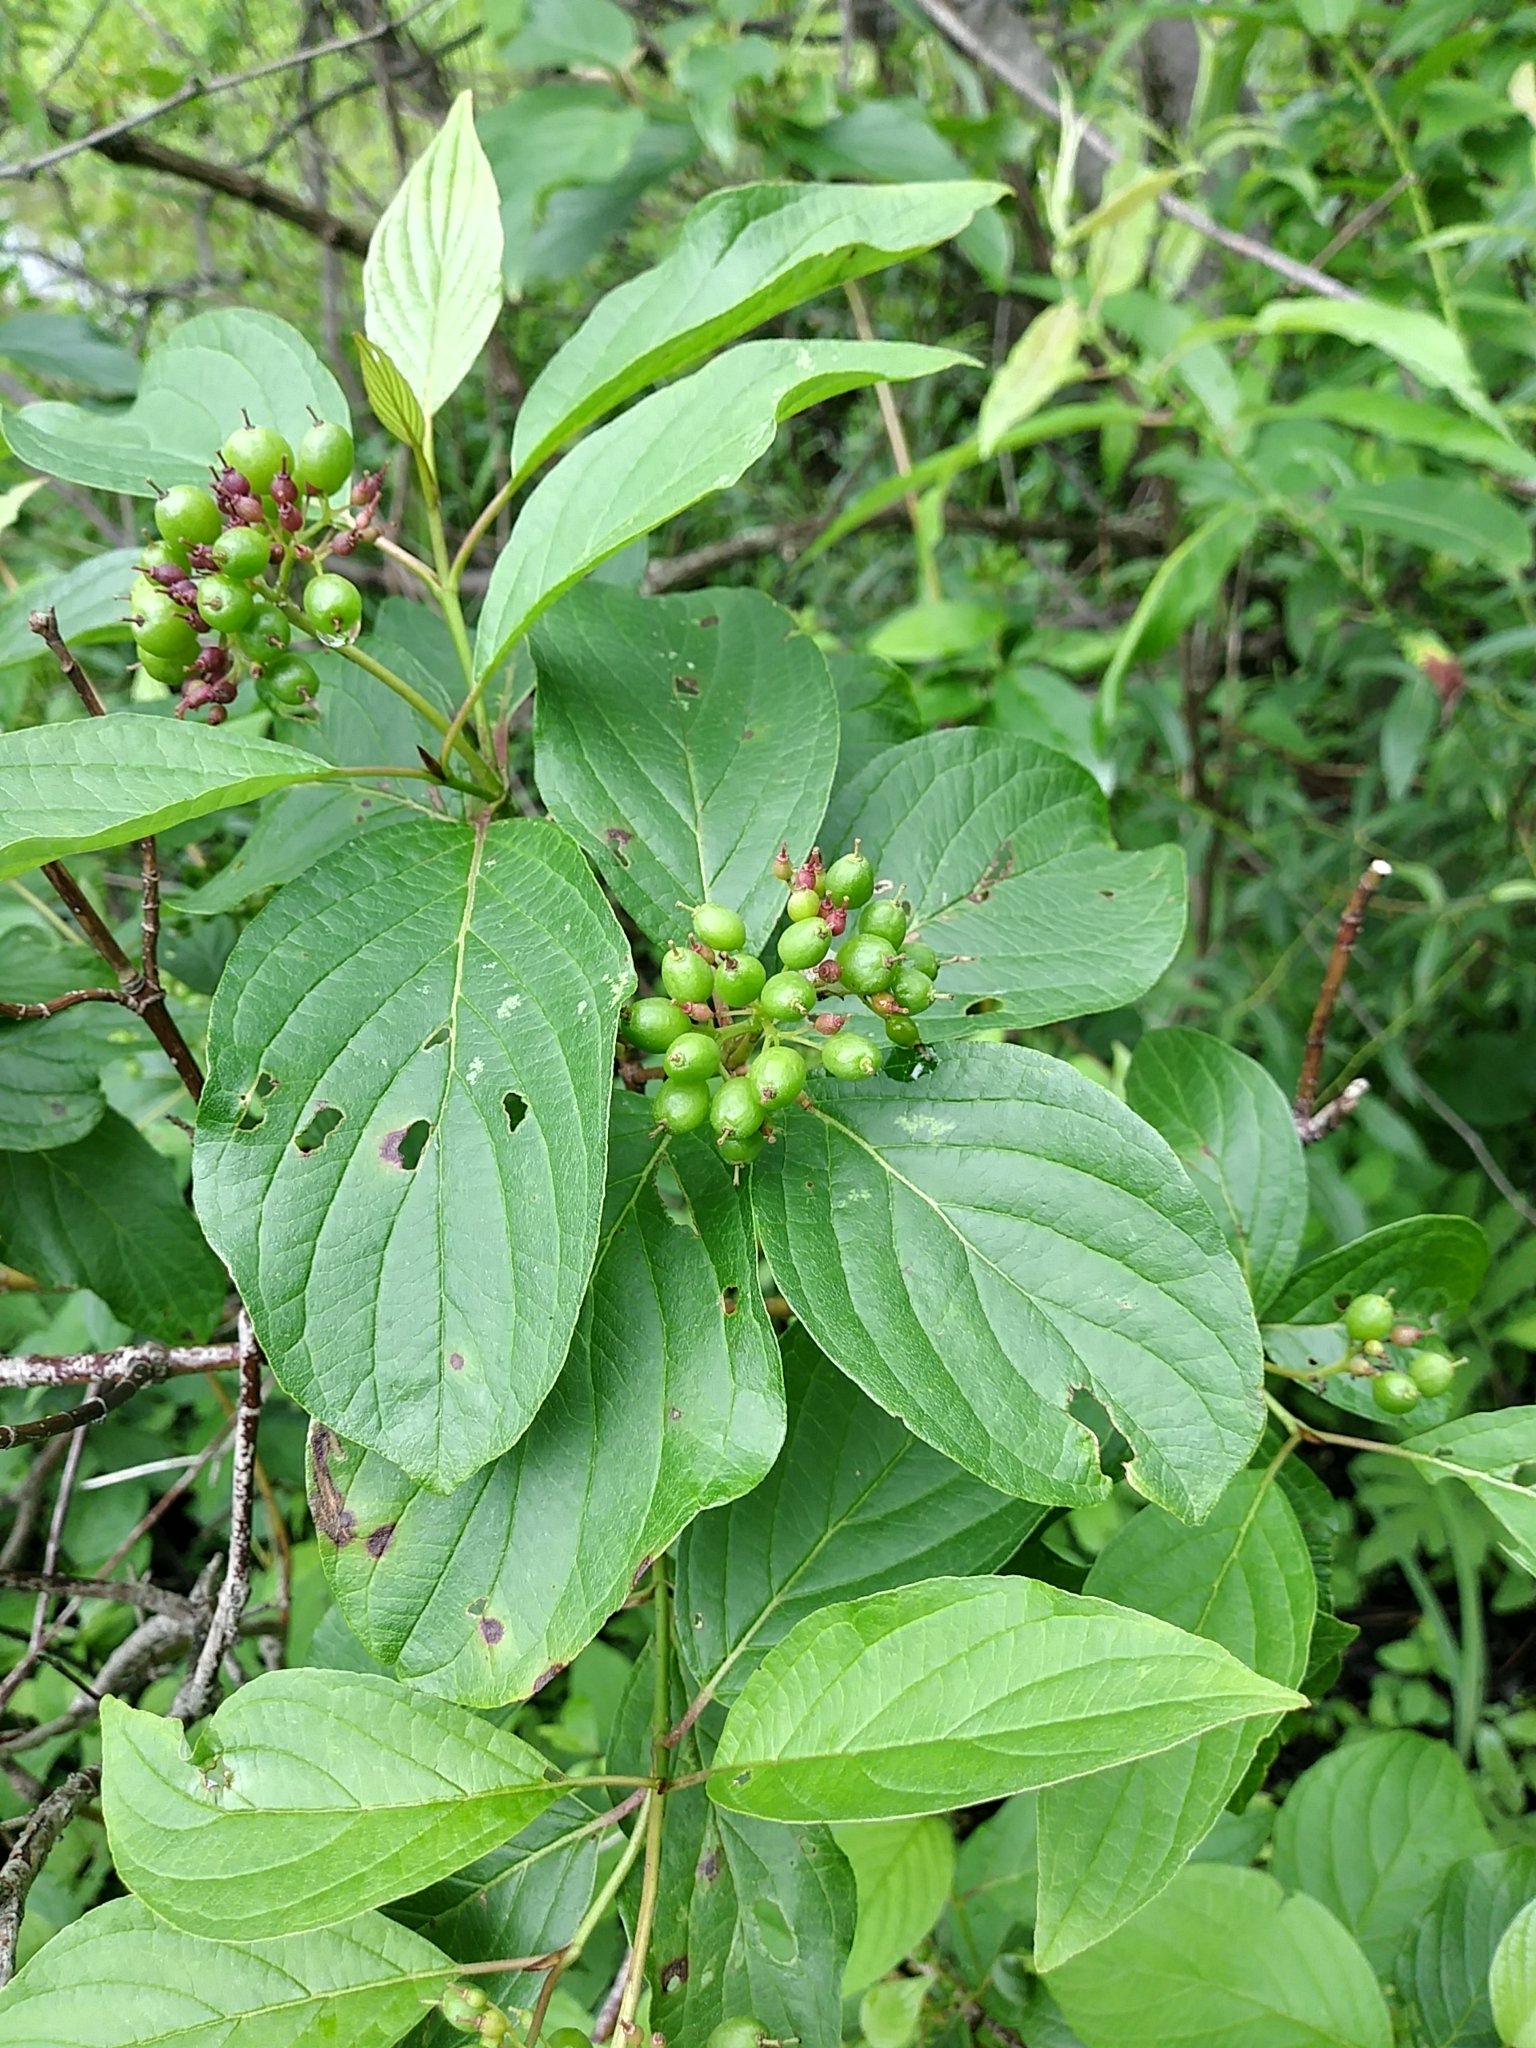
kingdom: Plantae
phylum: Tracheophyta
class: Magnoliopsida
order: Cornales
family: Cornaceae
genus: Cornus
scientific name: Cornus sericea
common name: Red-osier dogwood
